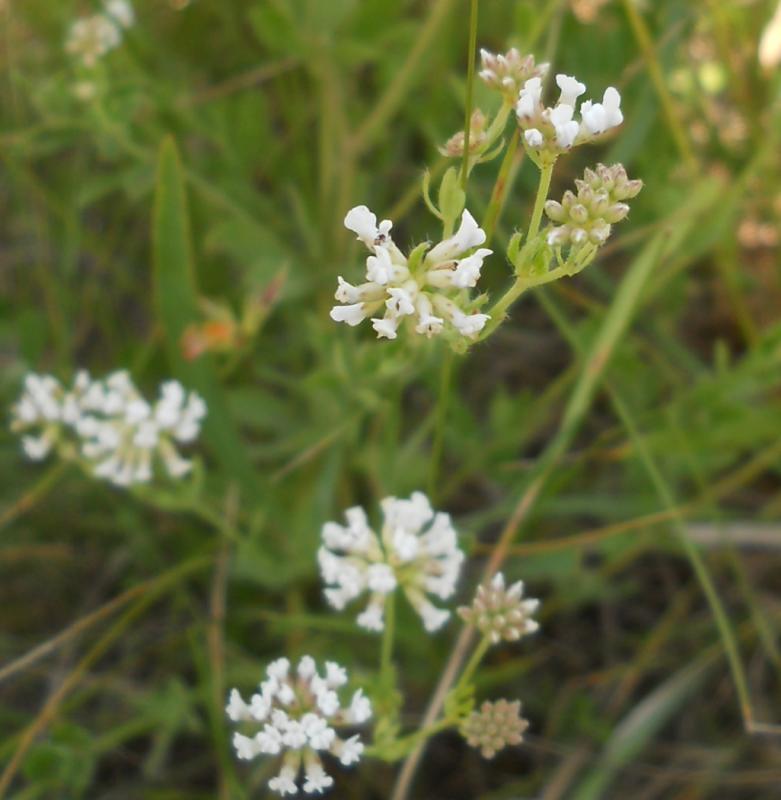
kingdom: Plantae
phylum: Tracheophyta
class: Magnoliopsida
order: Fabales
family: Fabaceae
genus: Lotus
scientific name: Lotus herbaceus
